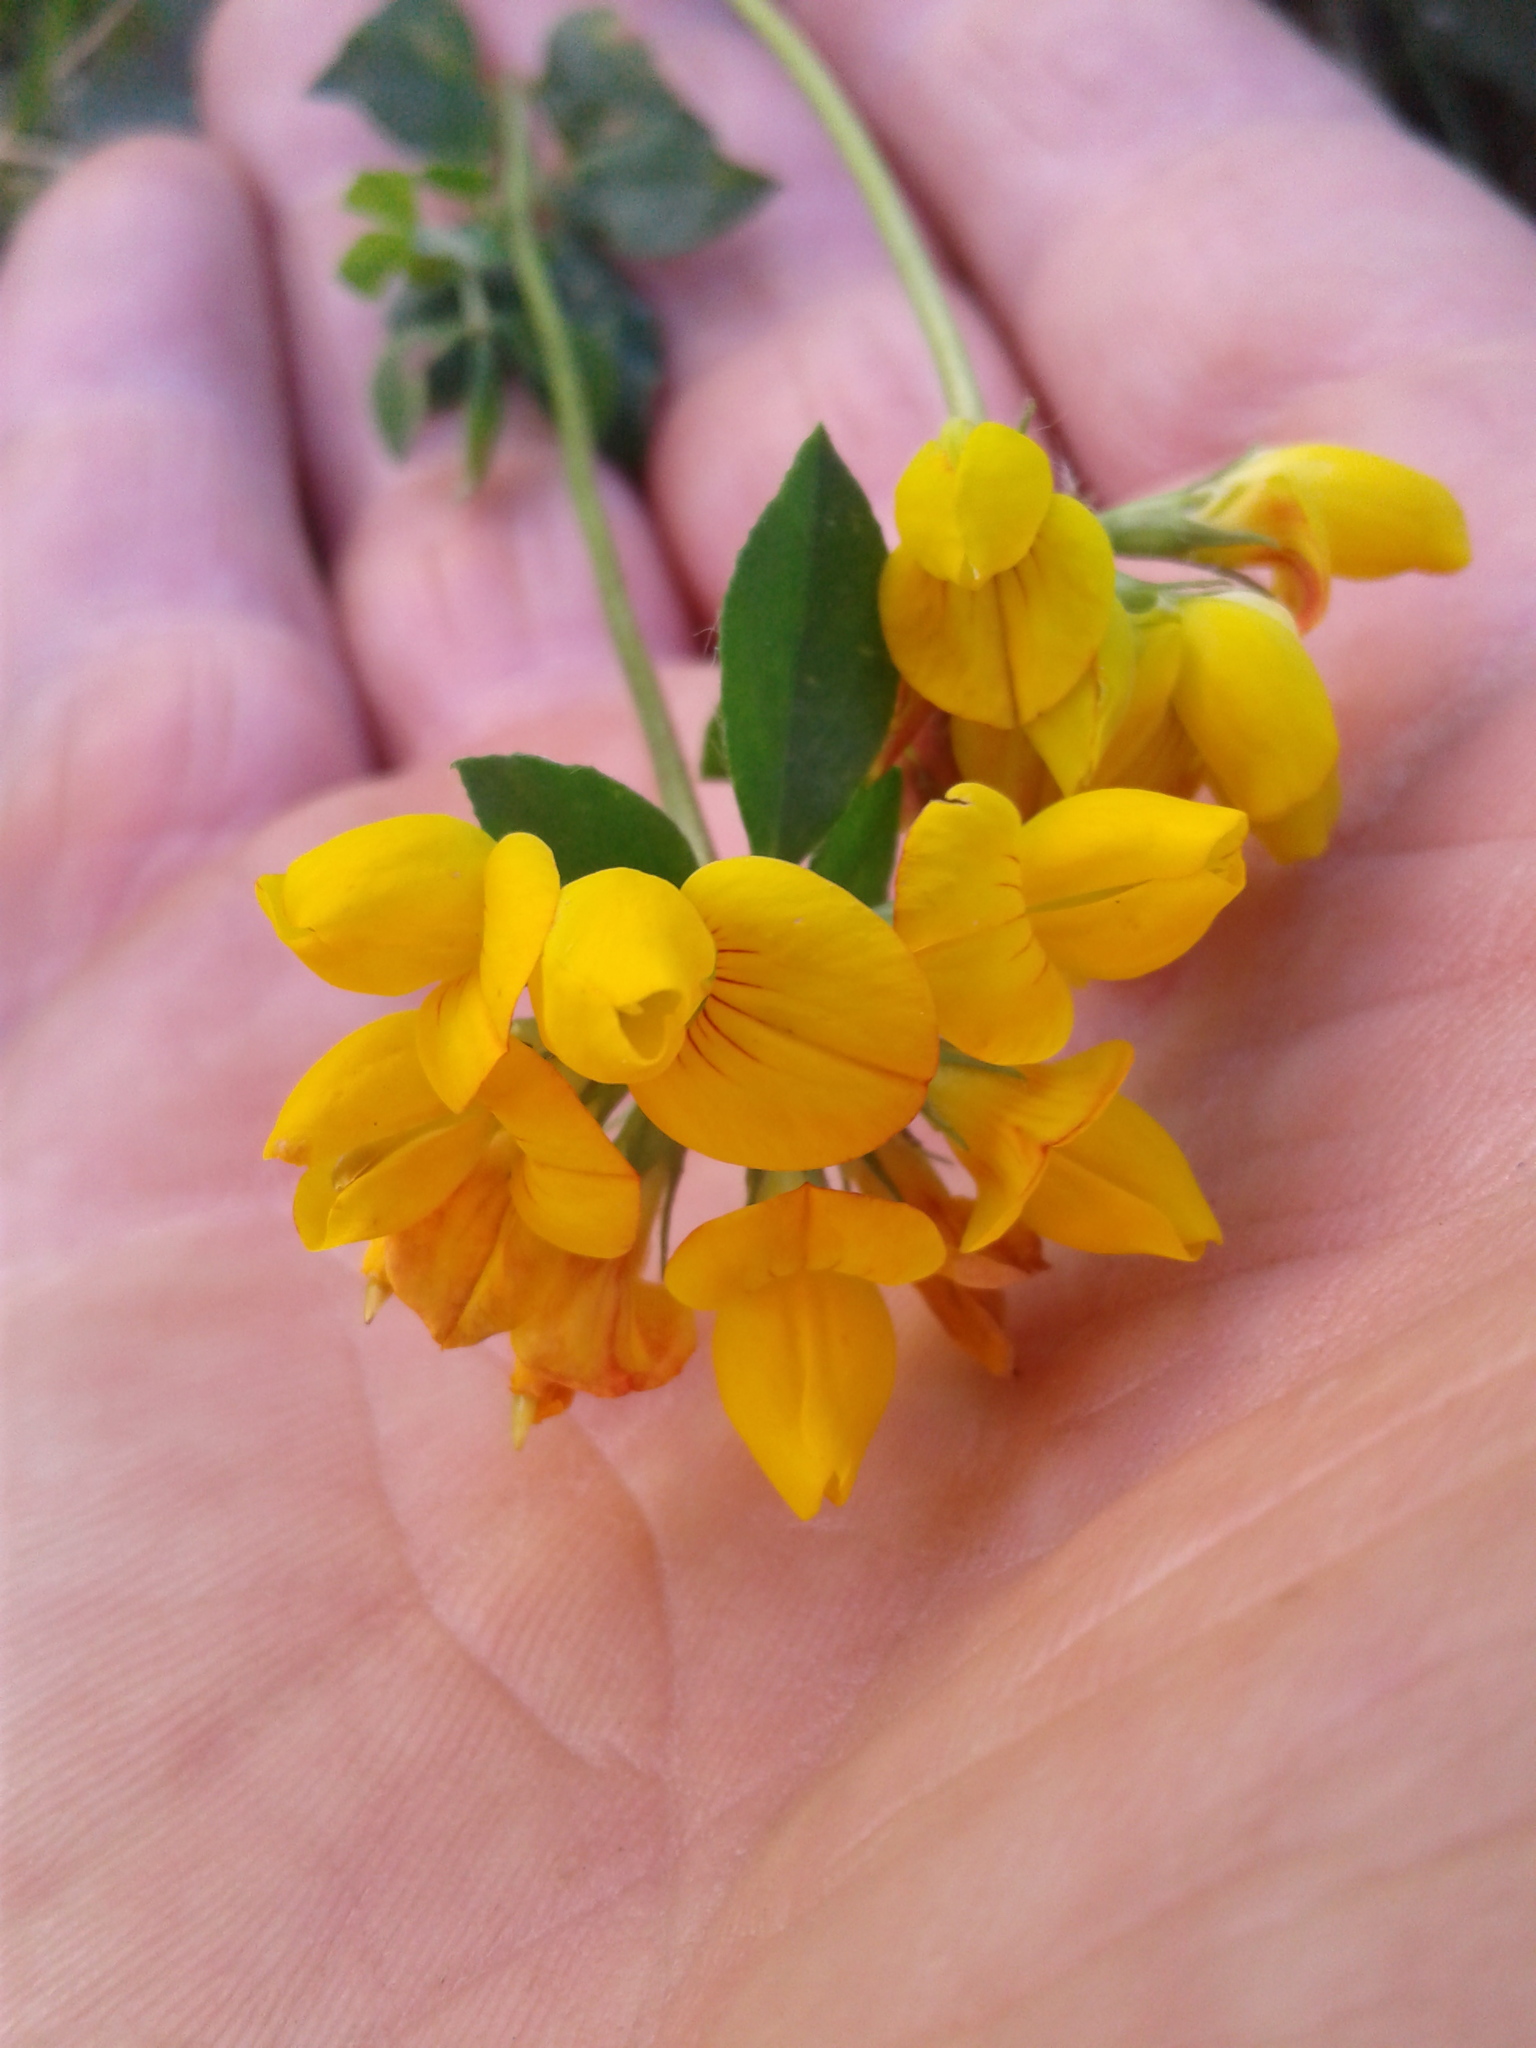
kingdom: Plantae
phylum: Tracheophyta
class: Magnoliopsida
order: Fabales
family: Fabaceae
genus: Lotus
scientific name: Lotus pedunculatus
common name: Greater birdsfoot-trefoil
